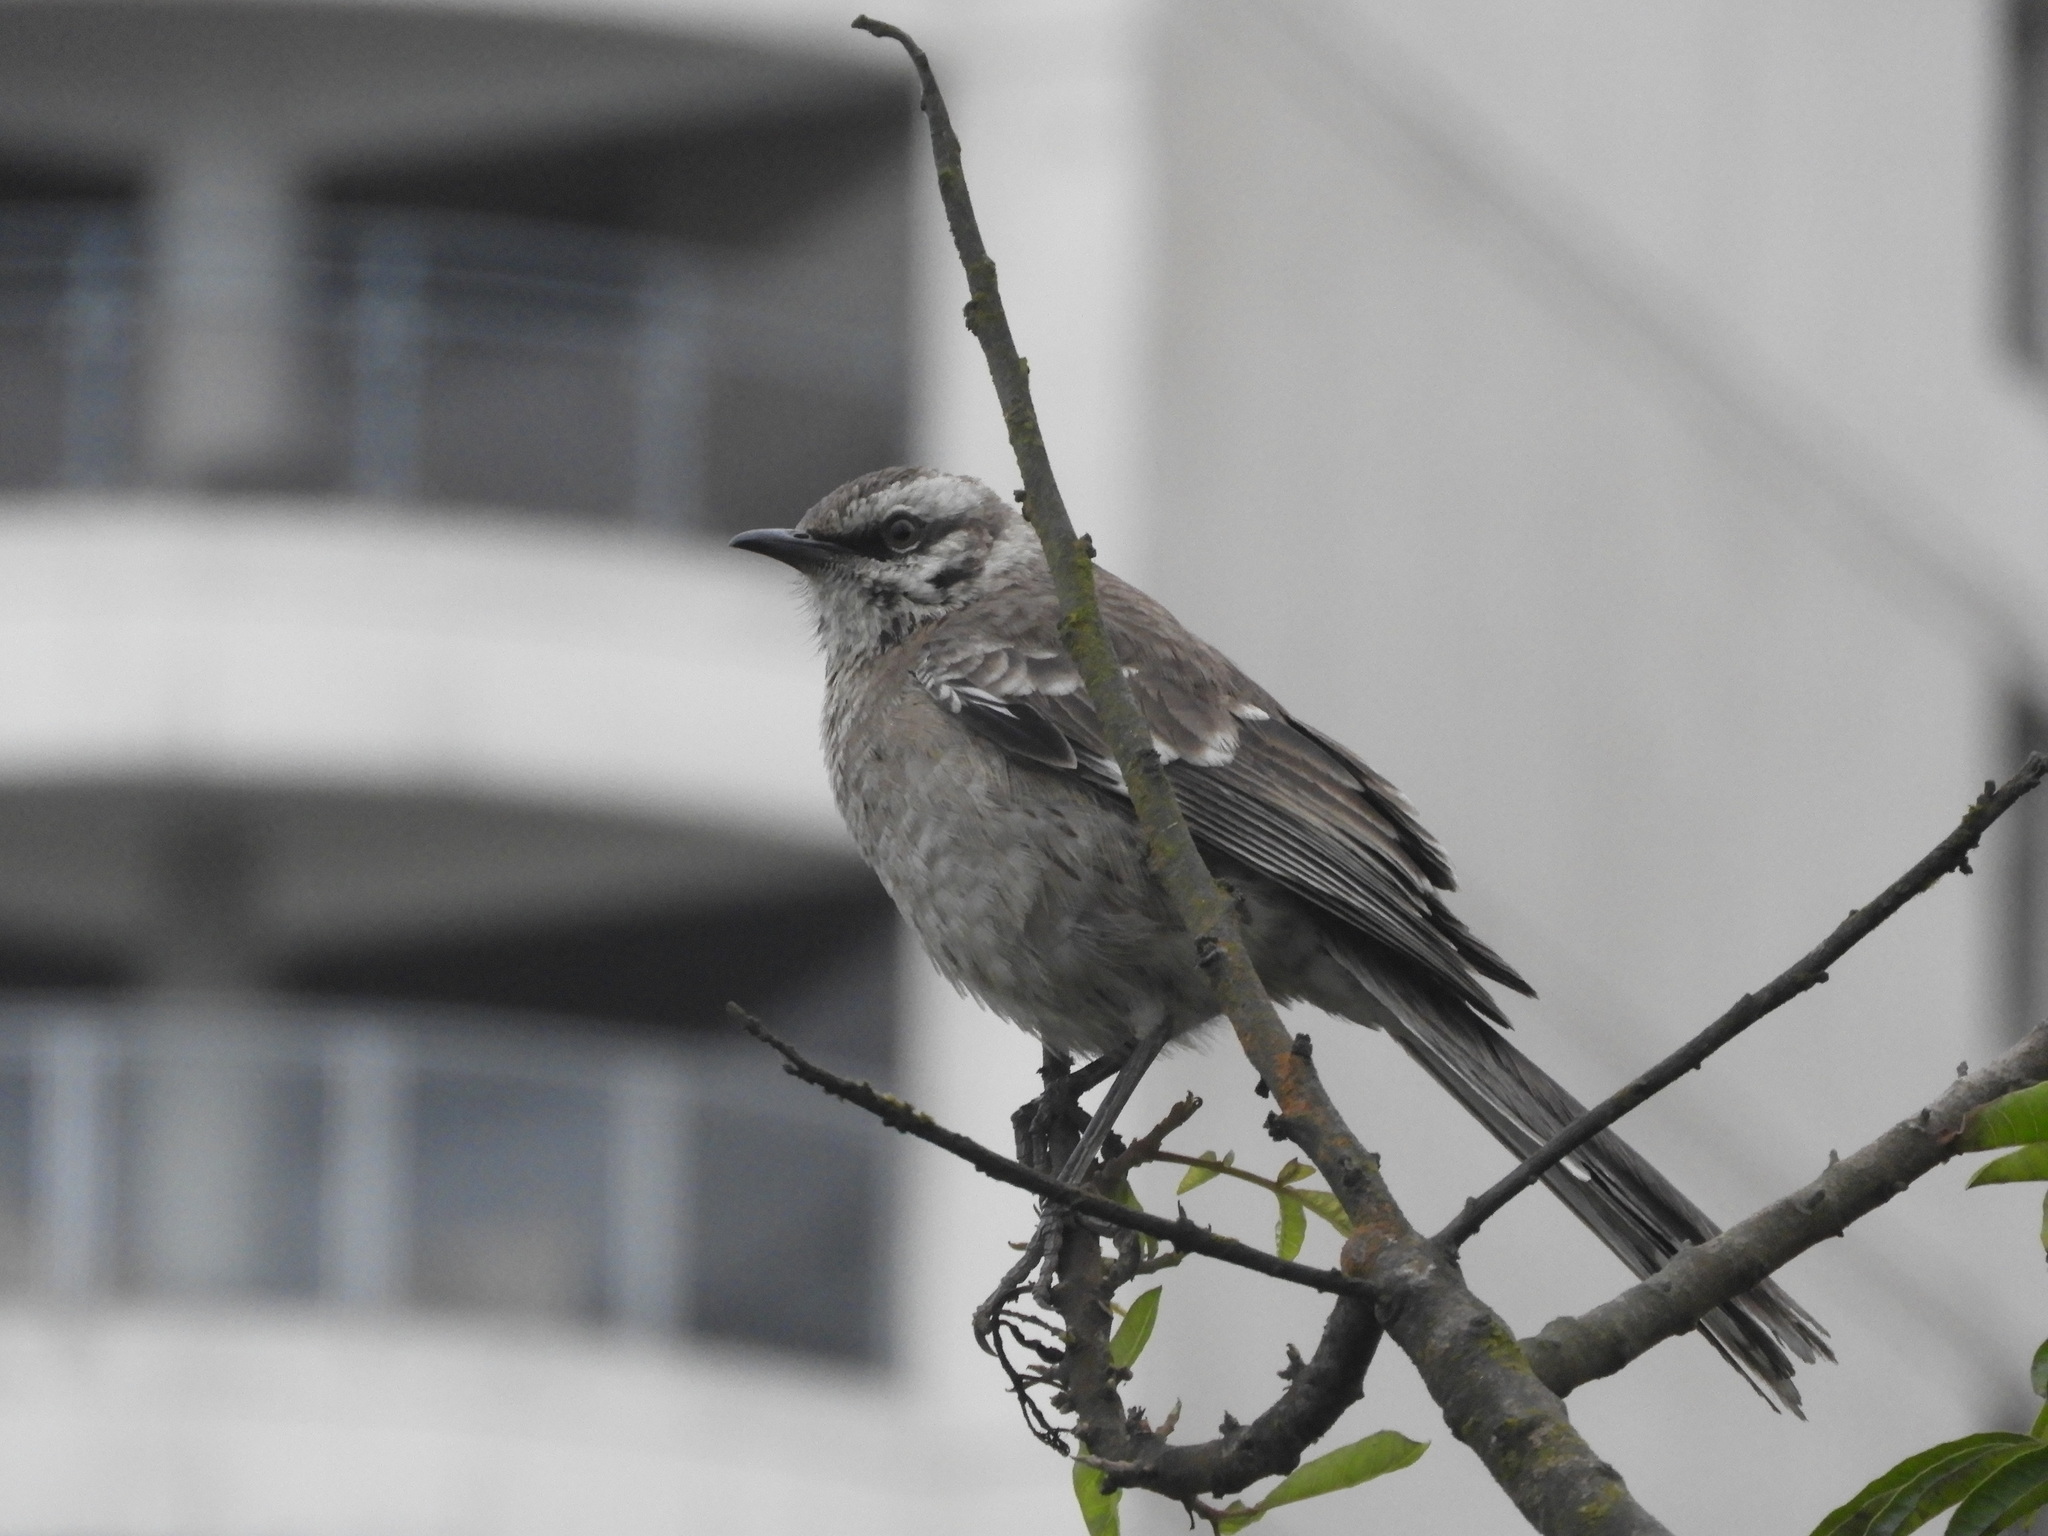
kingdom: Animalia
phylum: Chordata
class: Aves
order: Passeriformes
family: Mimidae
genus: Mimus
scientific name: Mimus longicaudatus
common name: Long-tailed mockingbird
